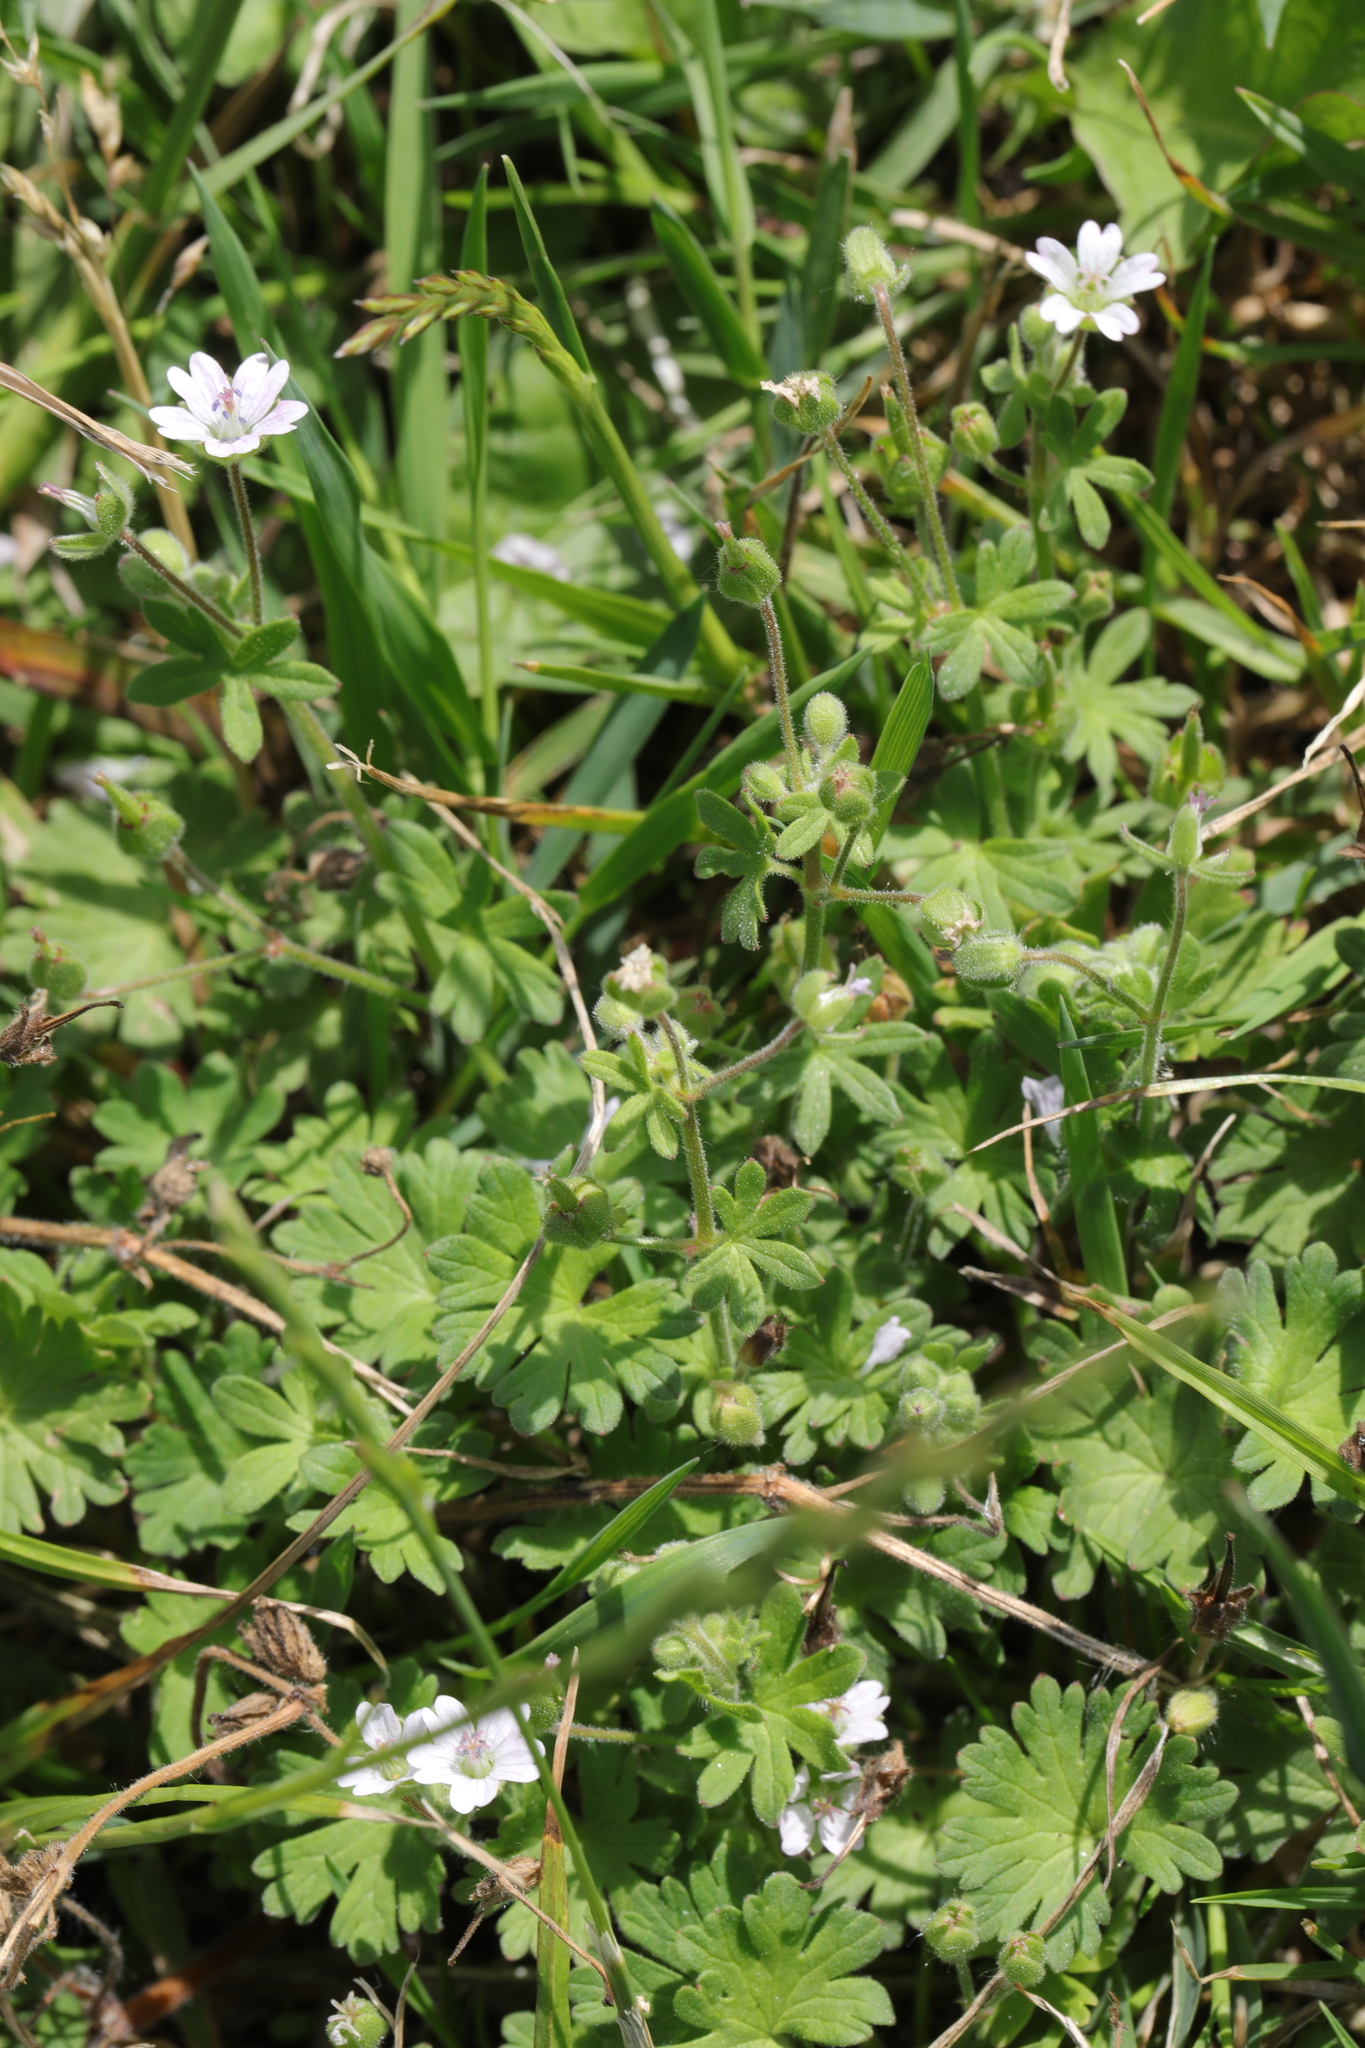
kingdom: Plantae
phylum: Tracheophyta
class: Magnoliopsida
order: Geraniales
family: Geraniaceae
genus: Geranium
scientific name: Geranium molle
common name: Dove's-foot crane's-bill
